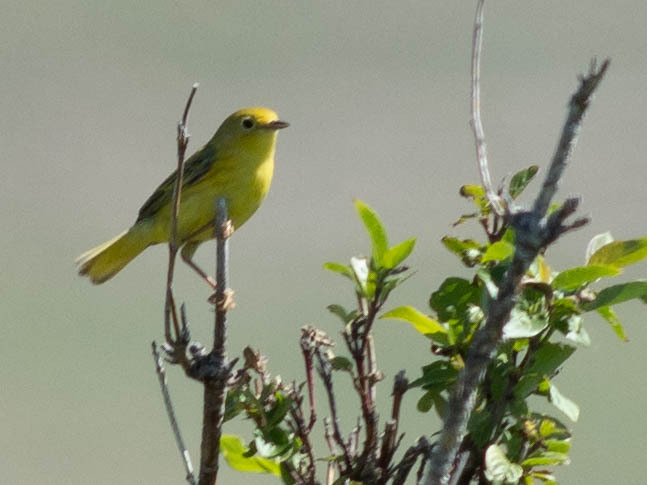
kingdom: Animalia
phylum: Chordata
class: Aves
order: Passeriformes
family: Parulidae
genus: Setophaga
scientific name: Setophaga petechia
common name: Yellow warbler
